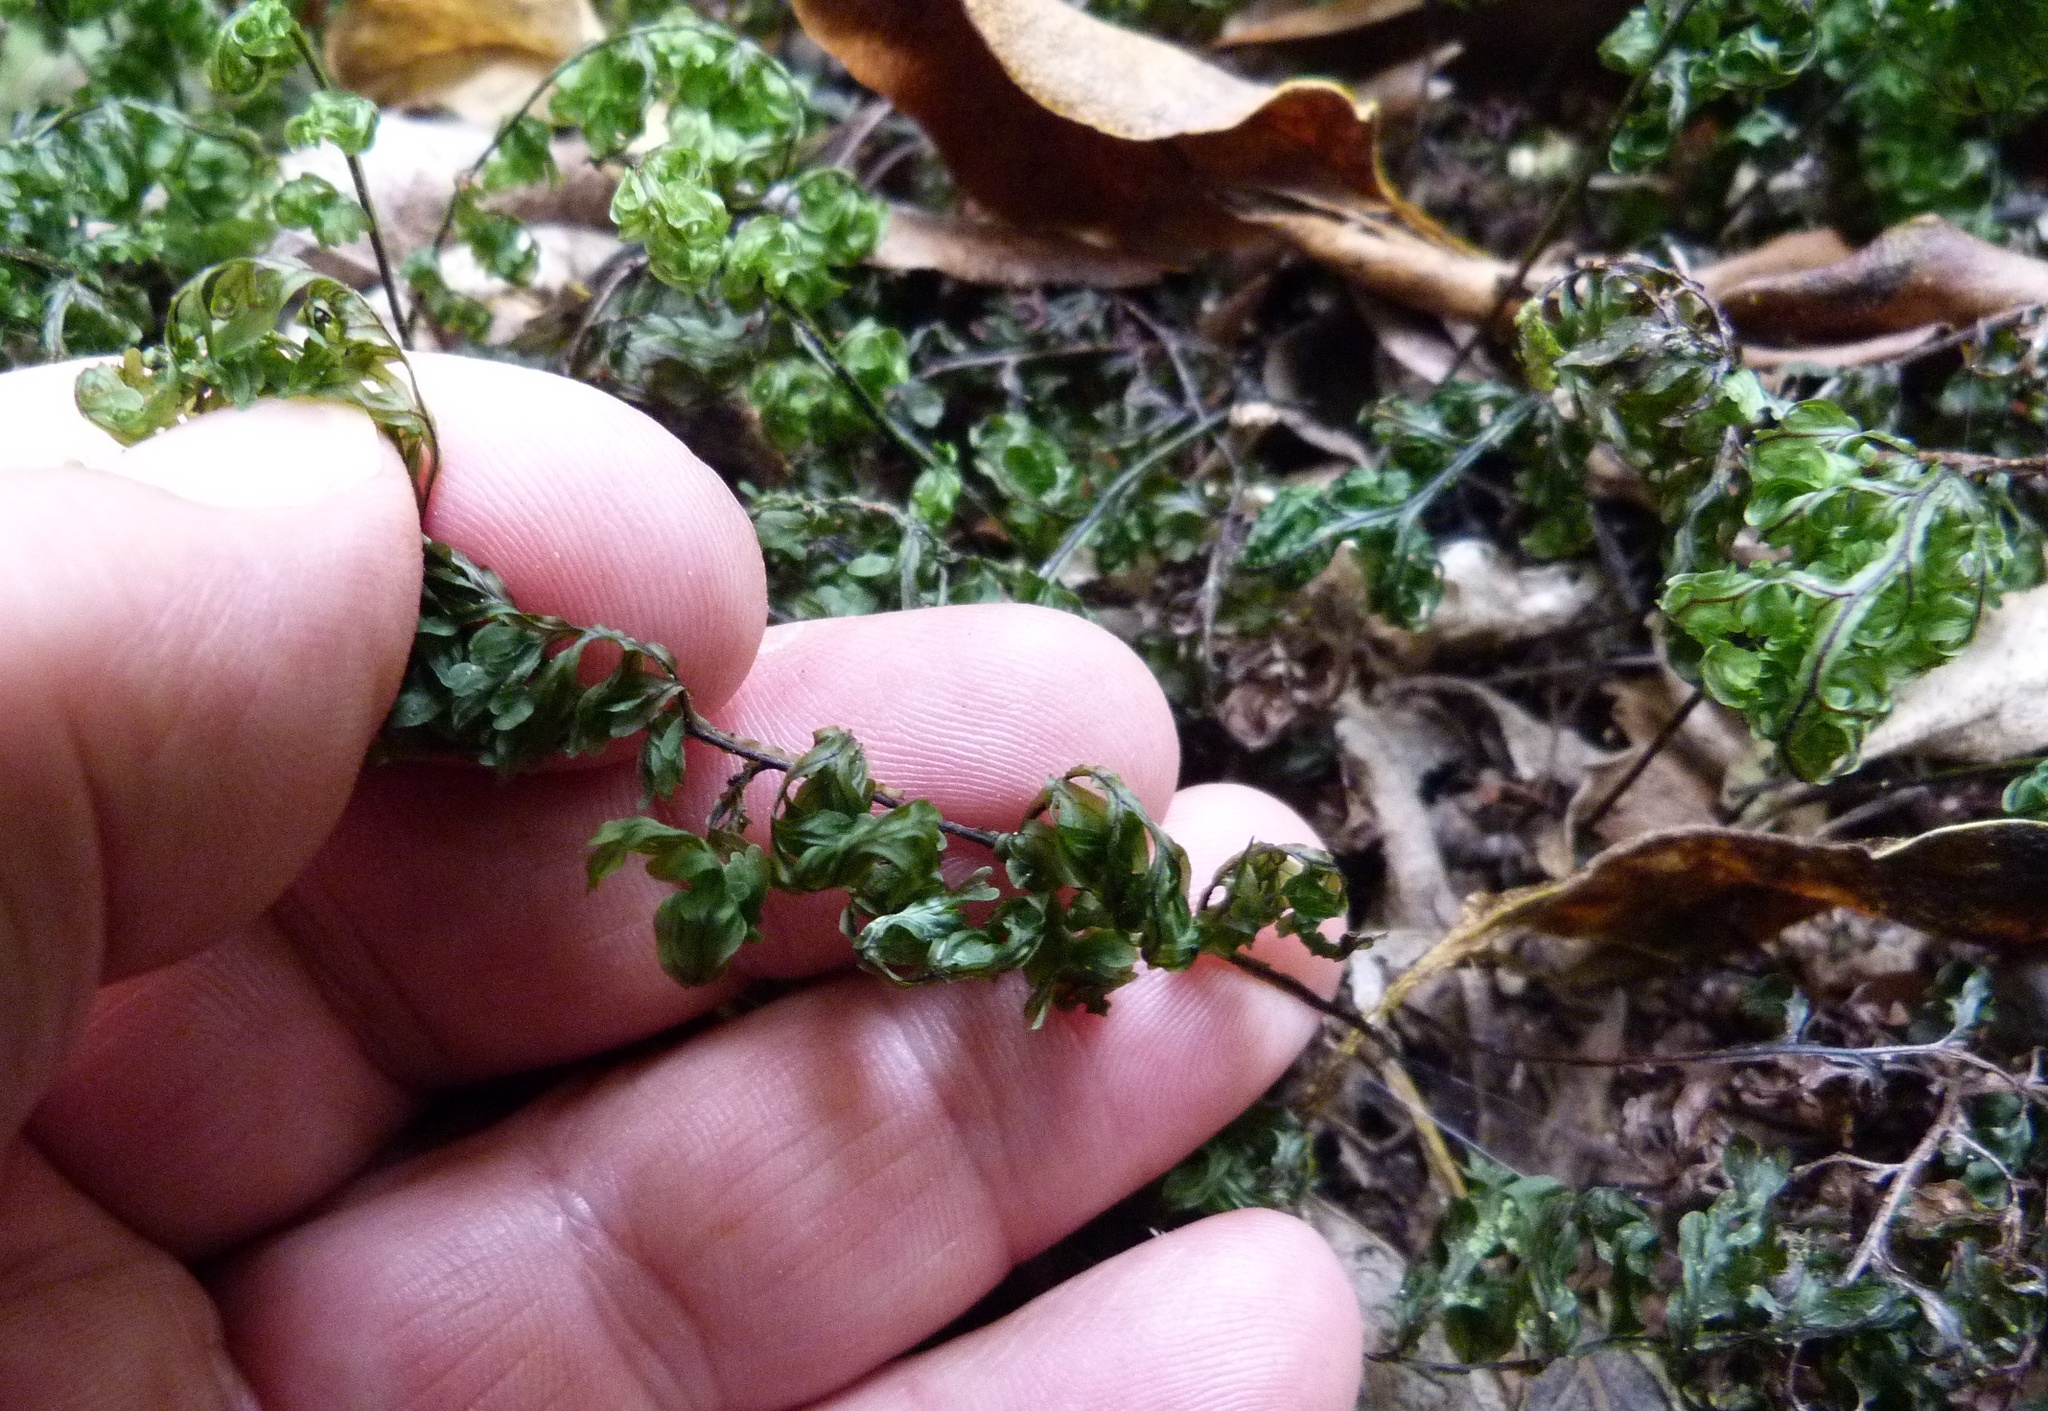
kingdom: Plantae
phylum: Tracheophyta
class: Polypodiopsida
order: Hymenophyllales
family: Hymenophyllaceae
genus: Hymenophyllum
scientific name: Hymenophyllum sanguinolentum
